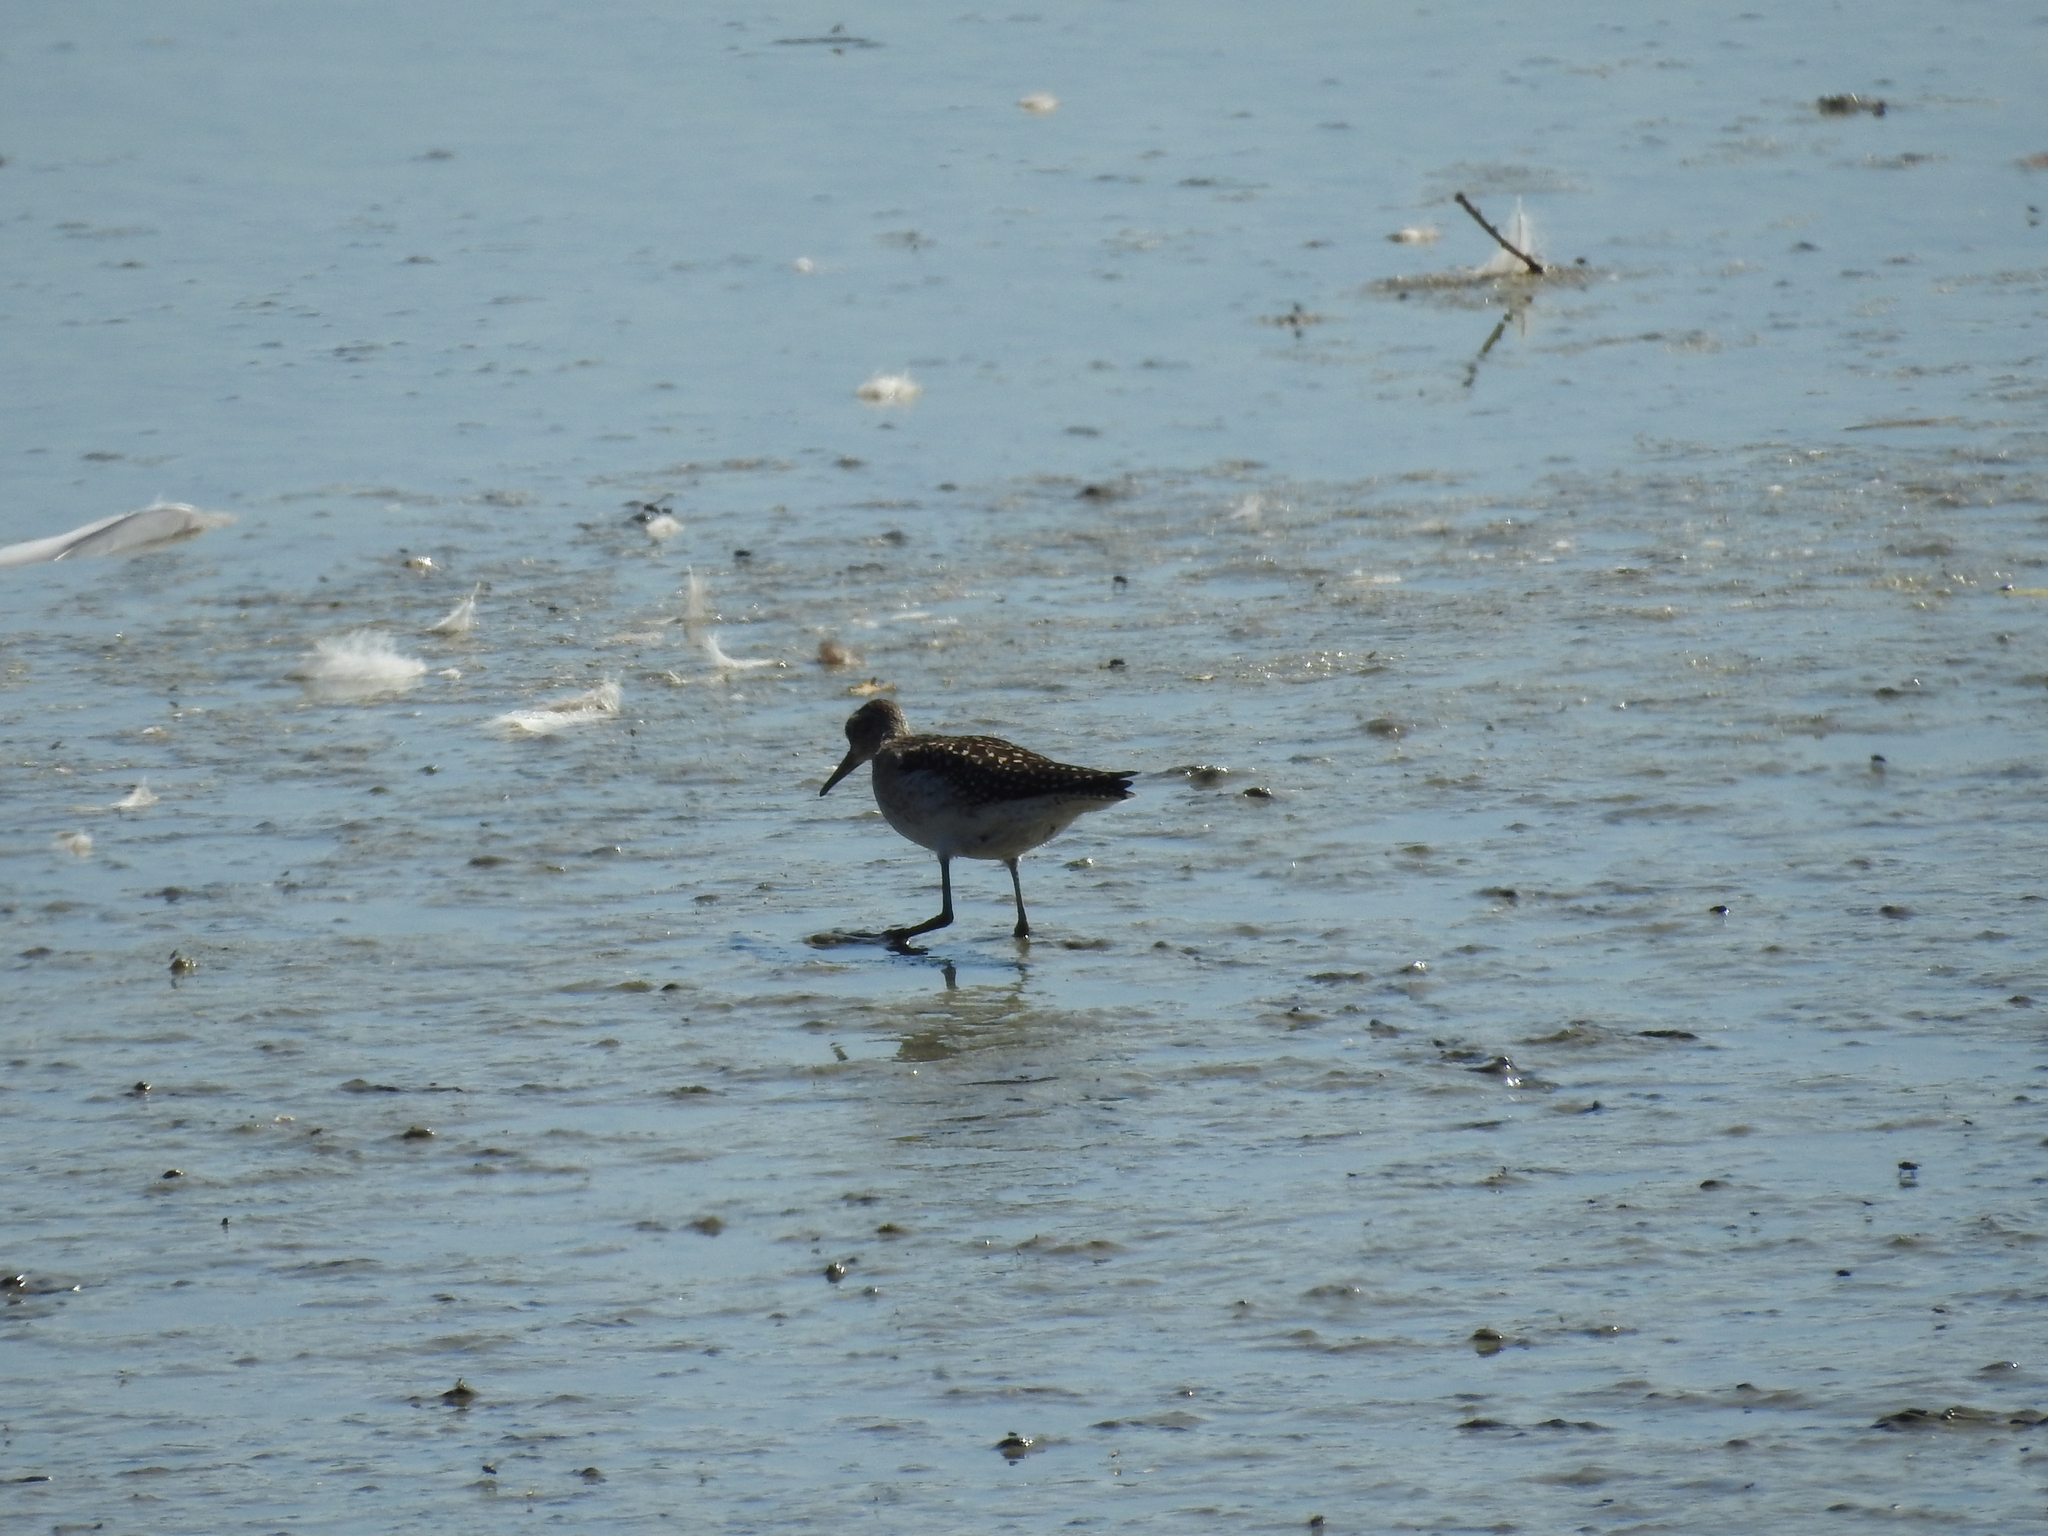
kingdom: Animalia
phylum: Chordata
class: Aves
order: Charadriiformes
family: Scolopacidae
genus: Tringa
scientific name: Tringa glareola
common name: Wood sandpiper
